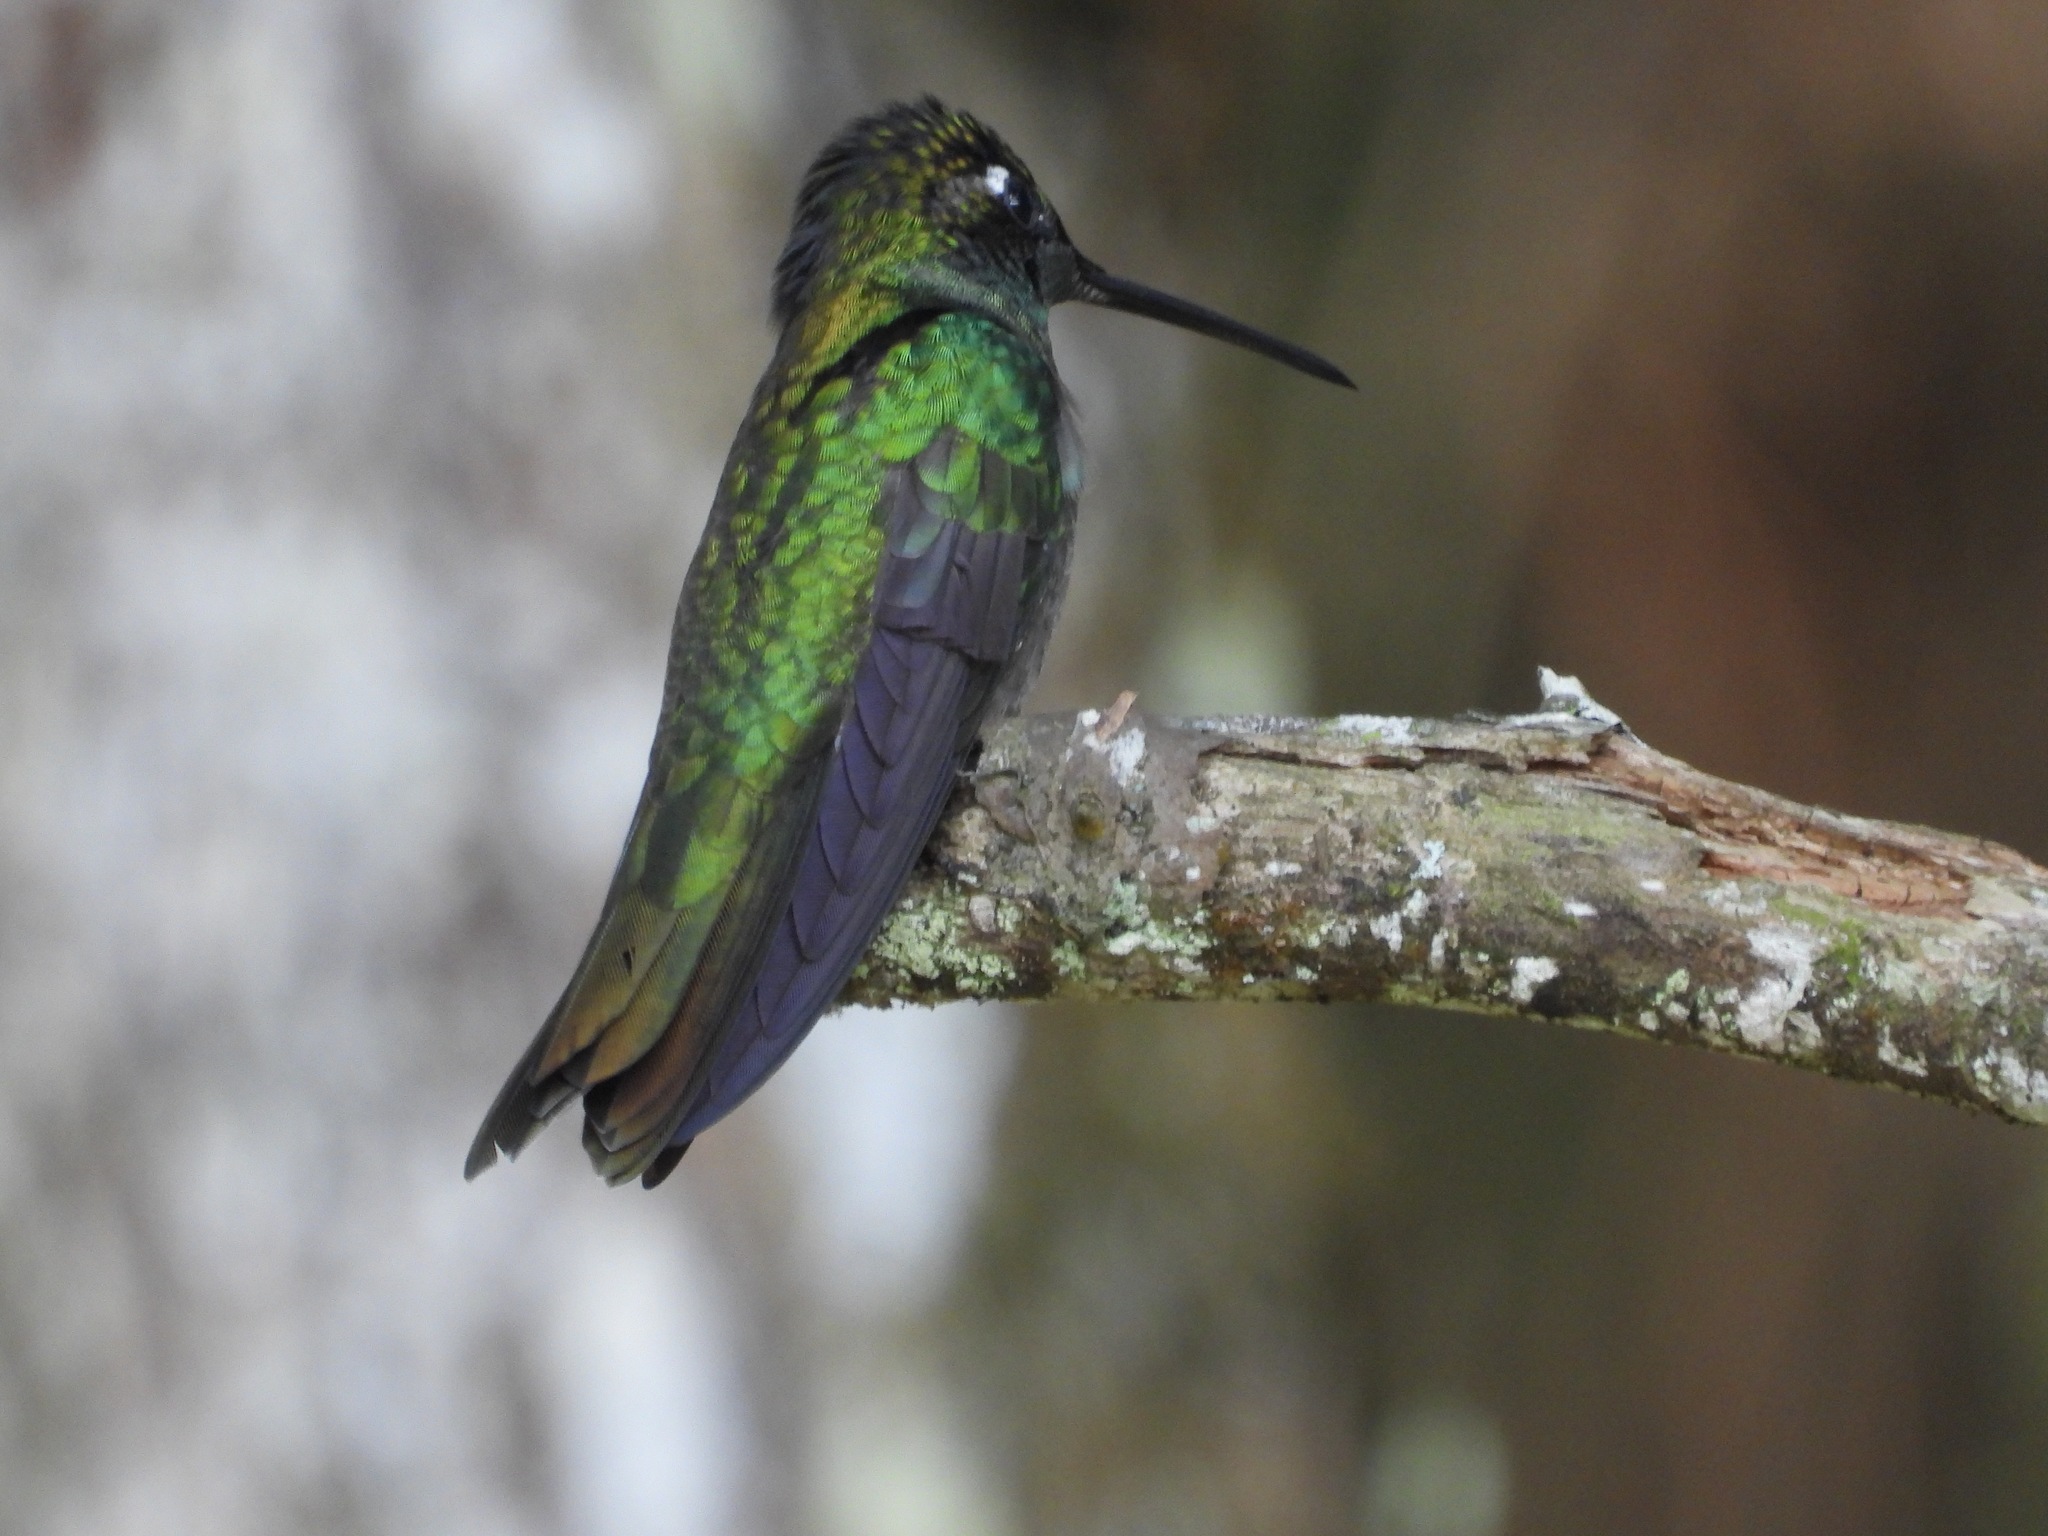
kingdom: Animalia
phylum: Chordata
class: Aves
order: Apodiformes
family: Trochilidae
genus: Eugenes
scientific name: Eugenes fulgens
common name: Magnificent hummingbird
